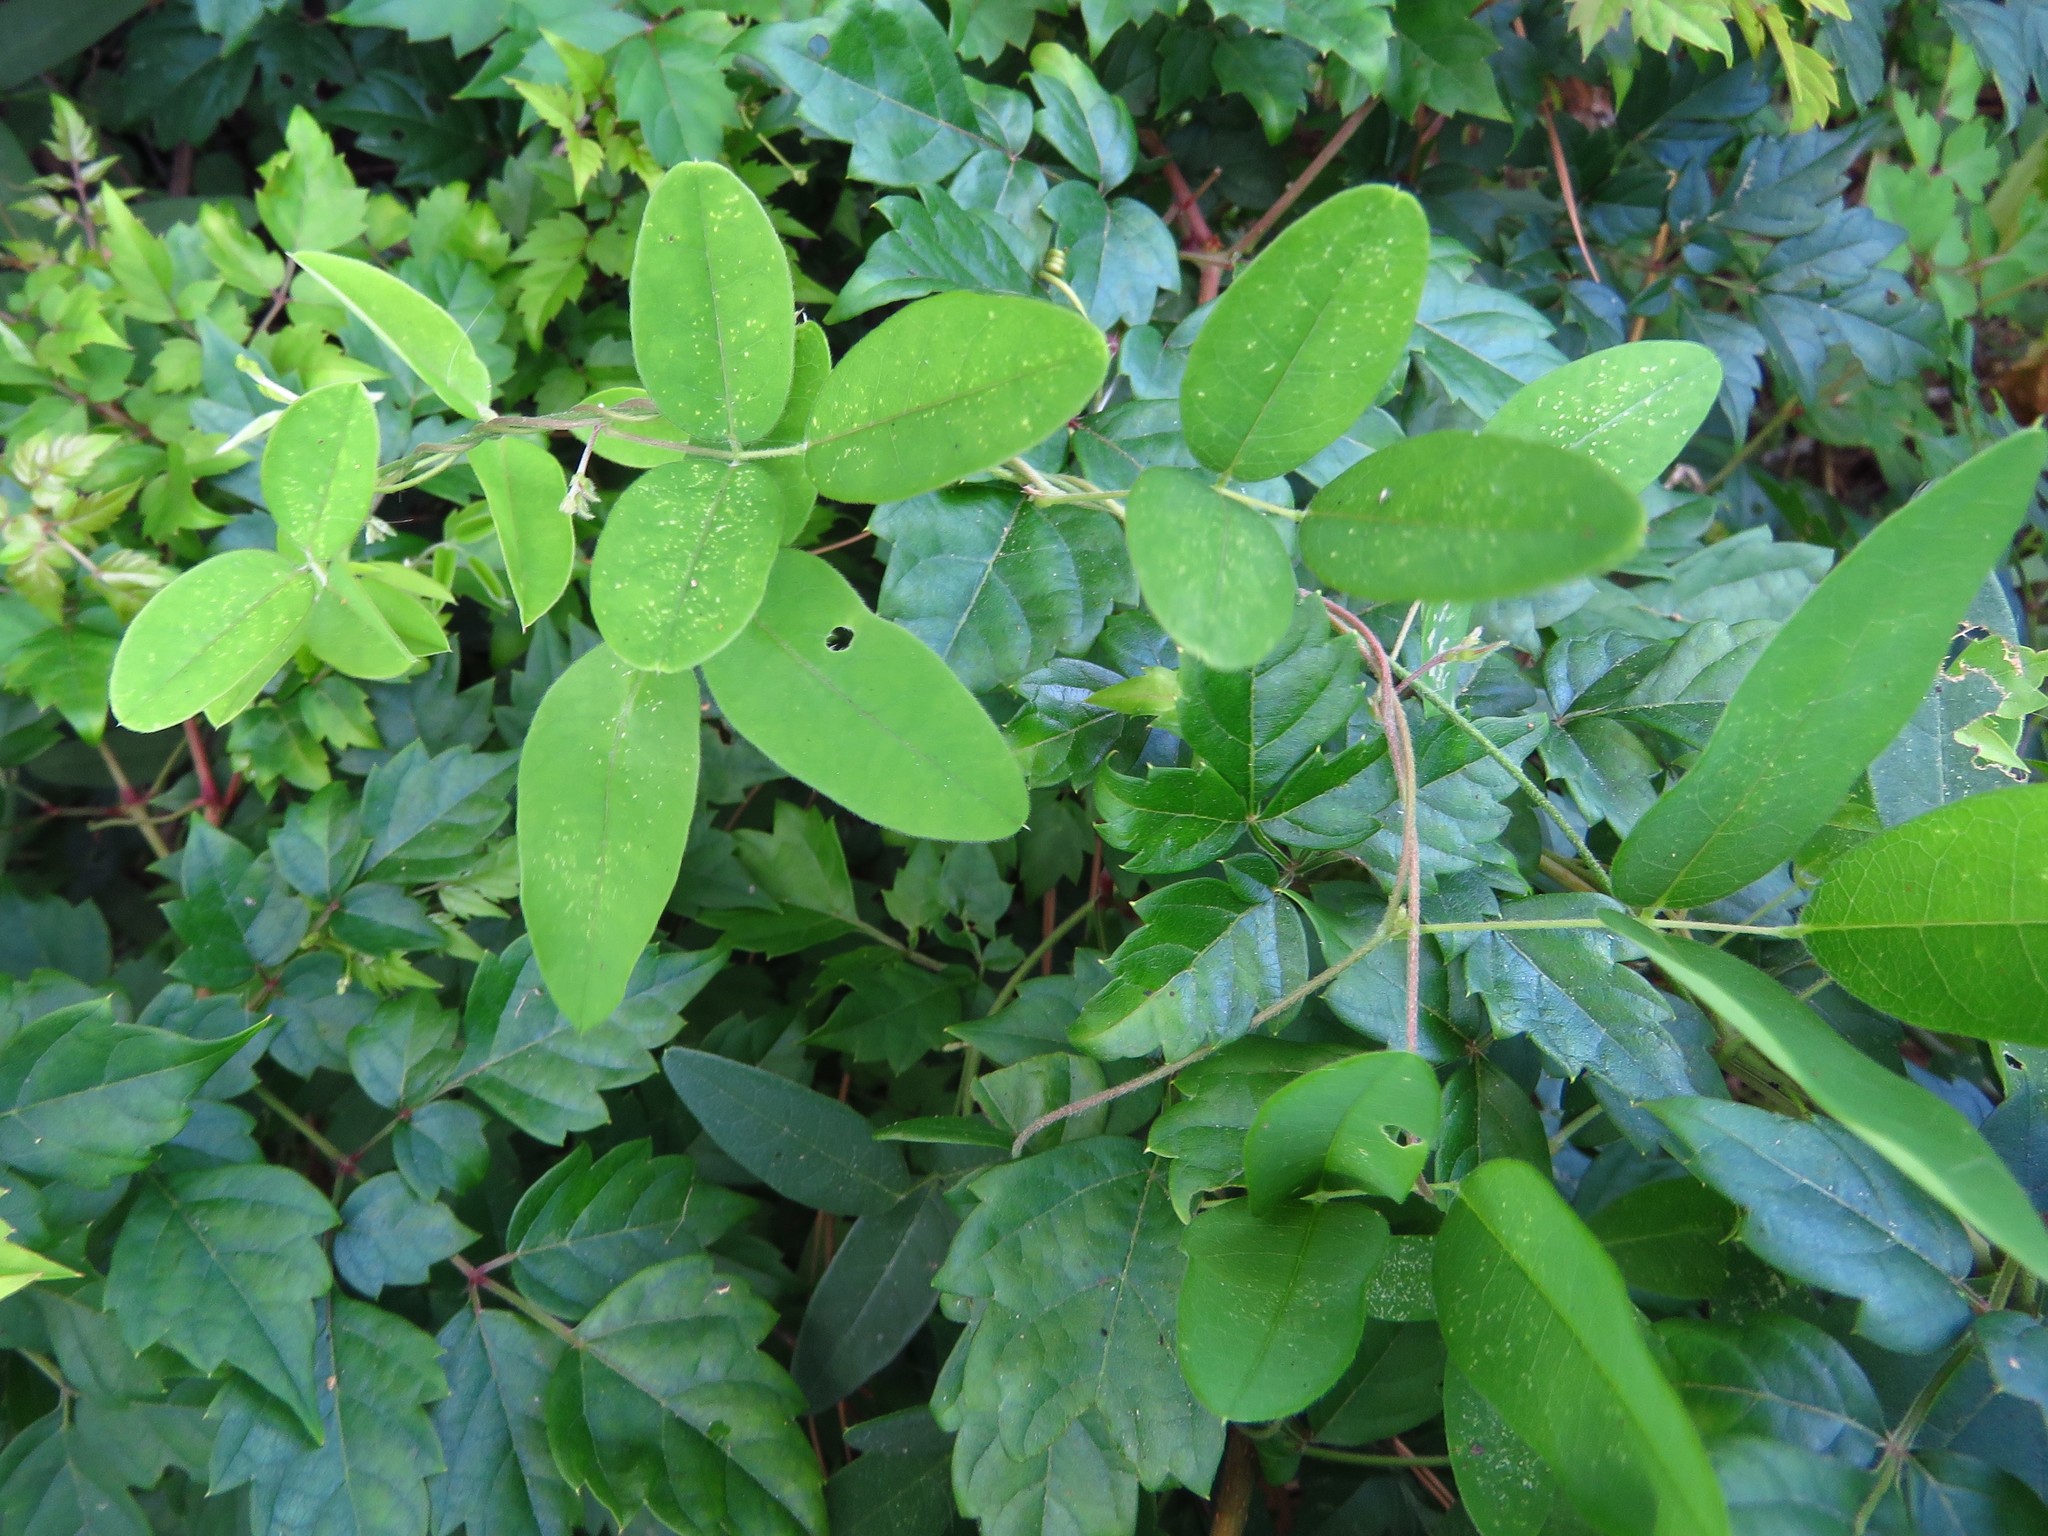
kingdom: Plantae
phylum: Tracheophyta
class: Magnoliopsida
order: Fabales
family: Fabaceae
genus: Galactia
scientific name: Galactia regularis
